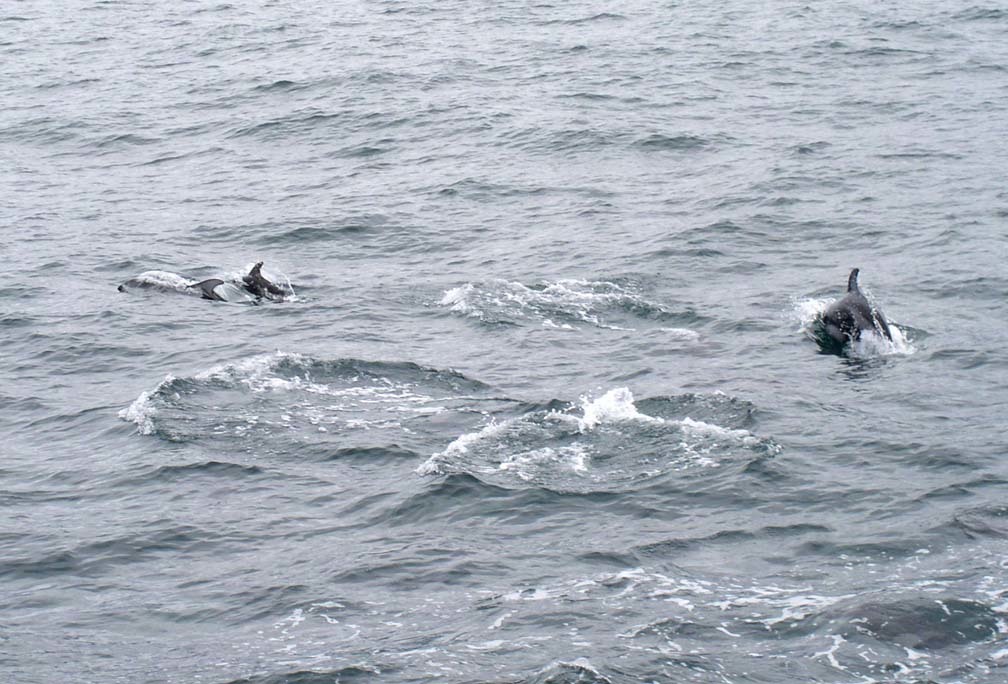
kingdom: Animalia
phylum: Chordata
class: Mammalia
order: Cetacea
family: Delphinidae
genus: Lagenorhynchus
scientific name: Lagenorhynchus obliquidens
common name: Pacific white-sided dolphin
